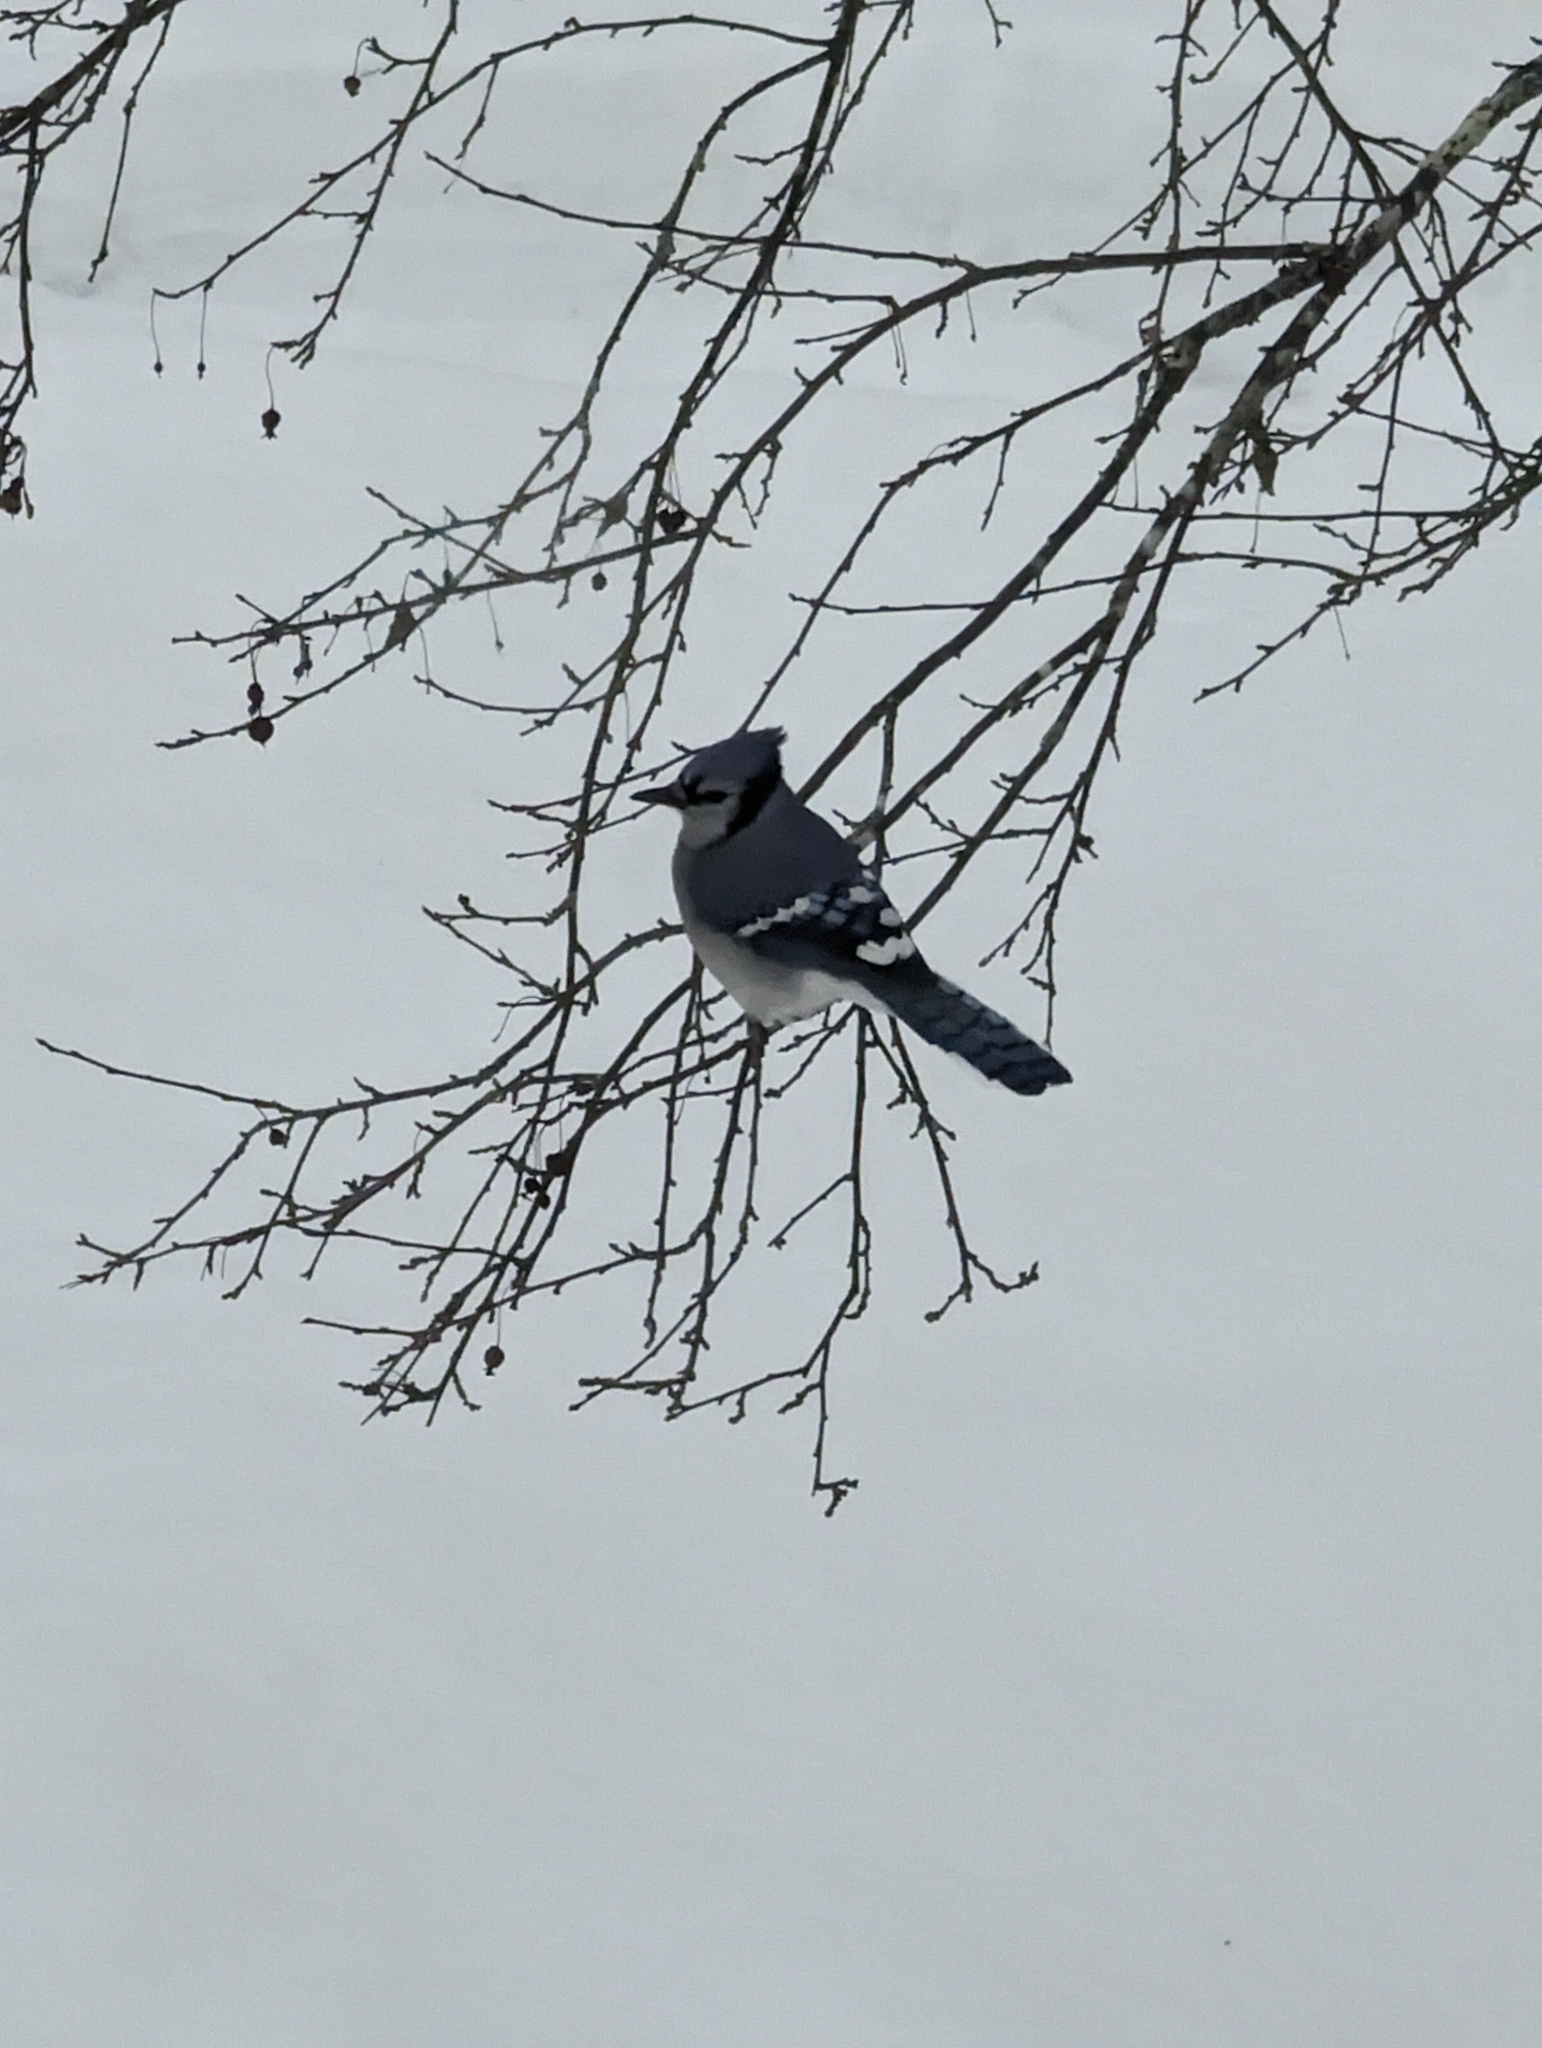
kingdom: Animalia
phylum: Chordata
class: Aves
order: Passeriformes
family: Corvidae
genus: Cyanocitta
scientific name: Cyanocitta cristata
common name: Blue jay
